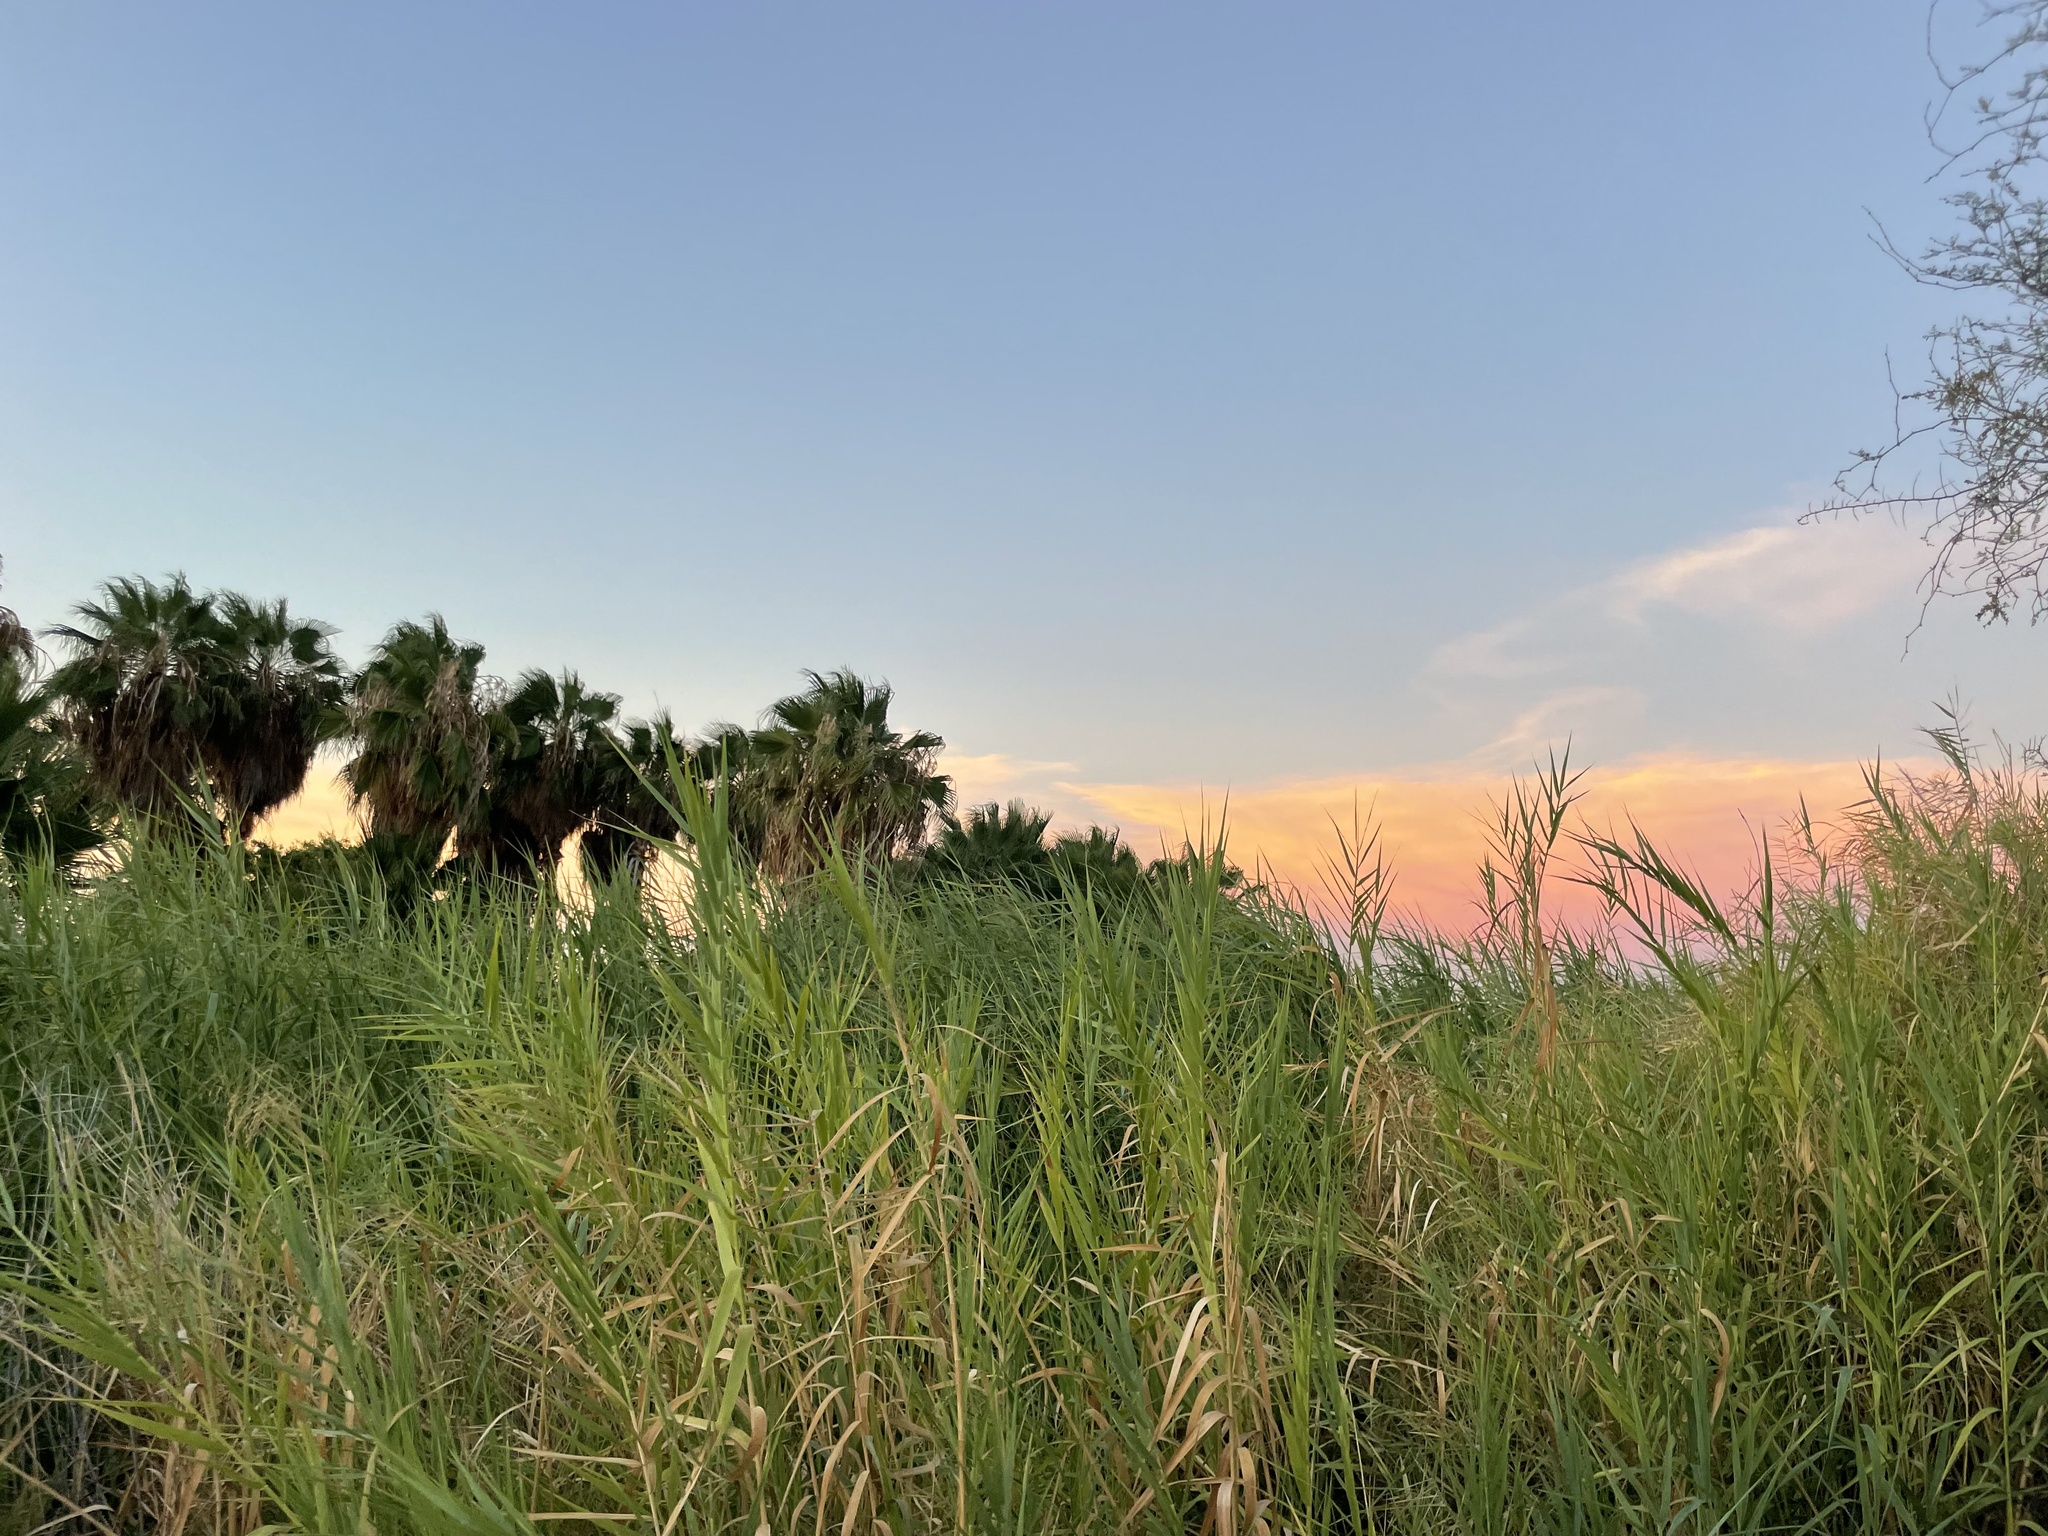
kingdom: Plantae
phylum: Tracheophyta
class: Liliopsida
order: Poales
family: Poaceae
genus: Phragmites
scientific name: Phragmites australis
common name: Common reed
